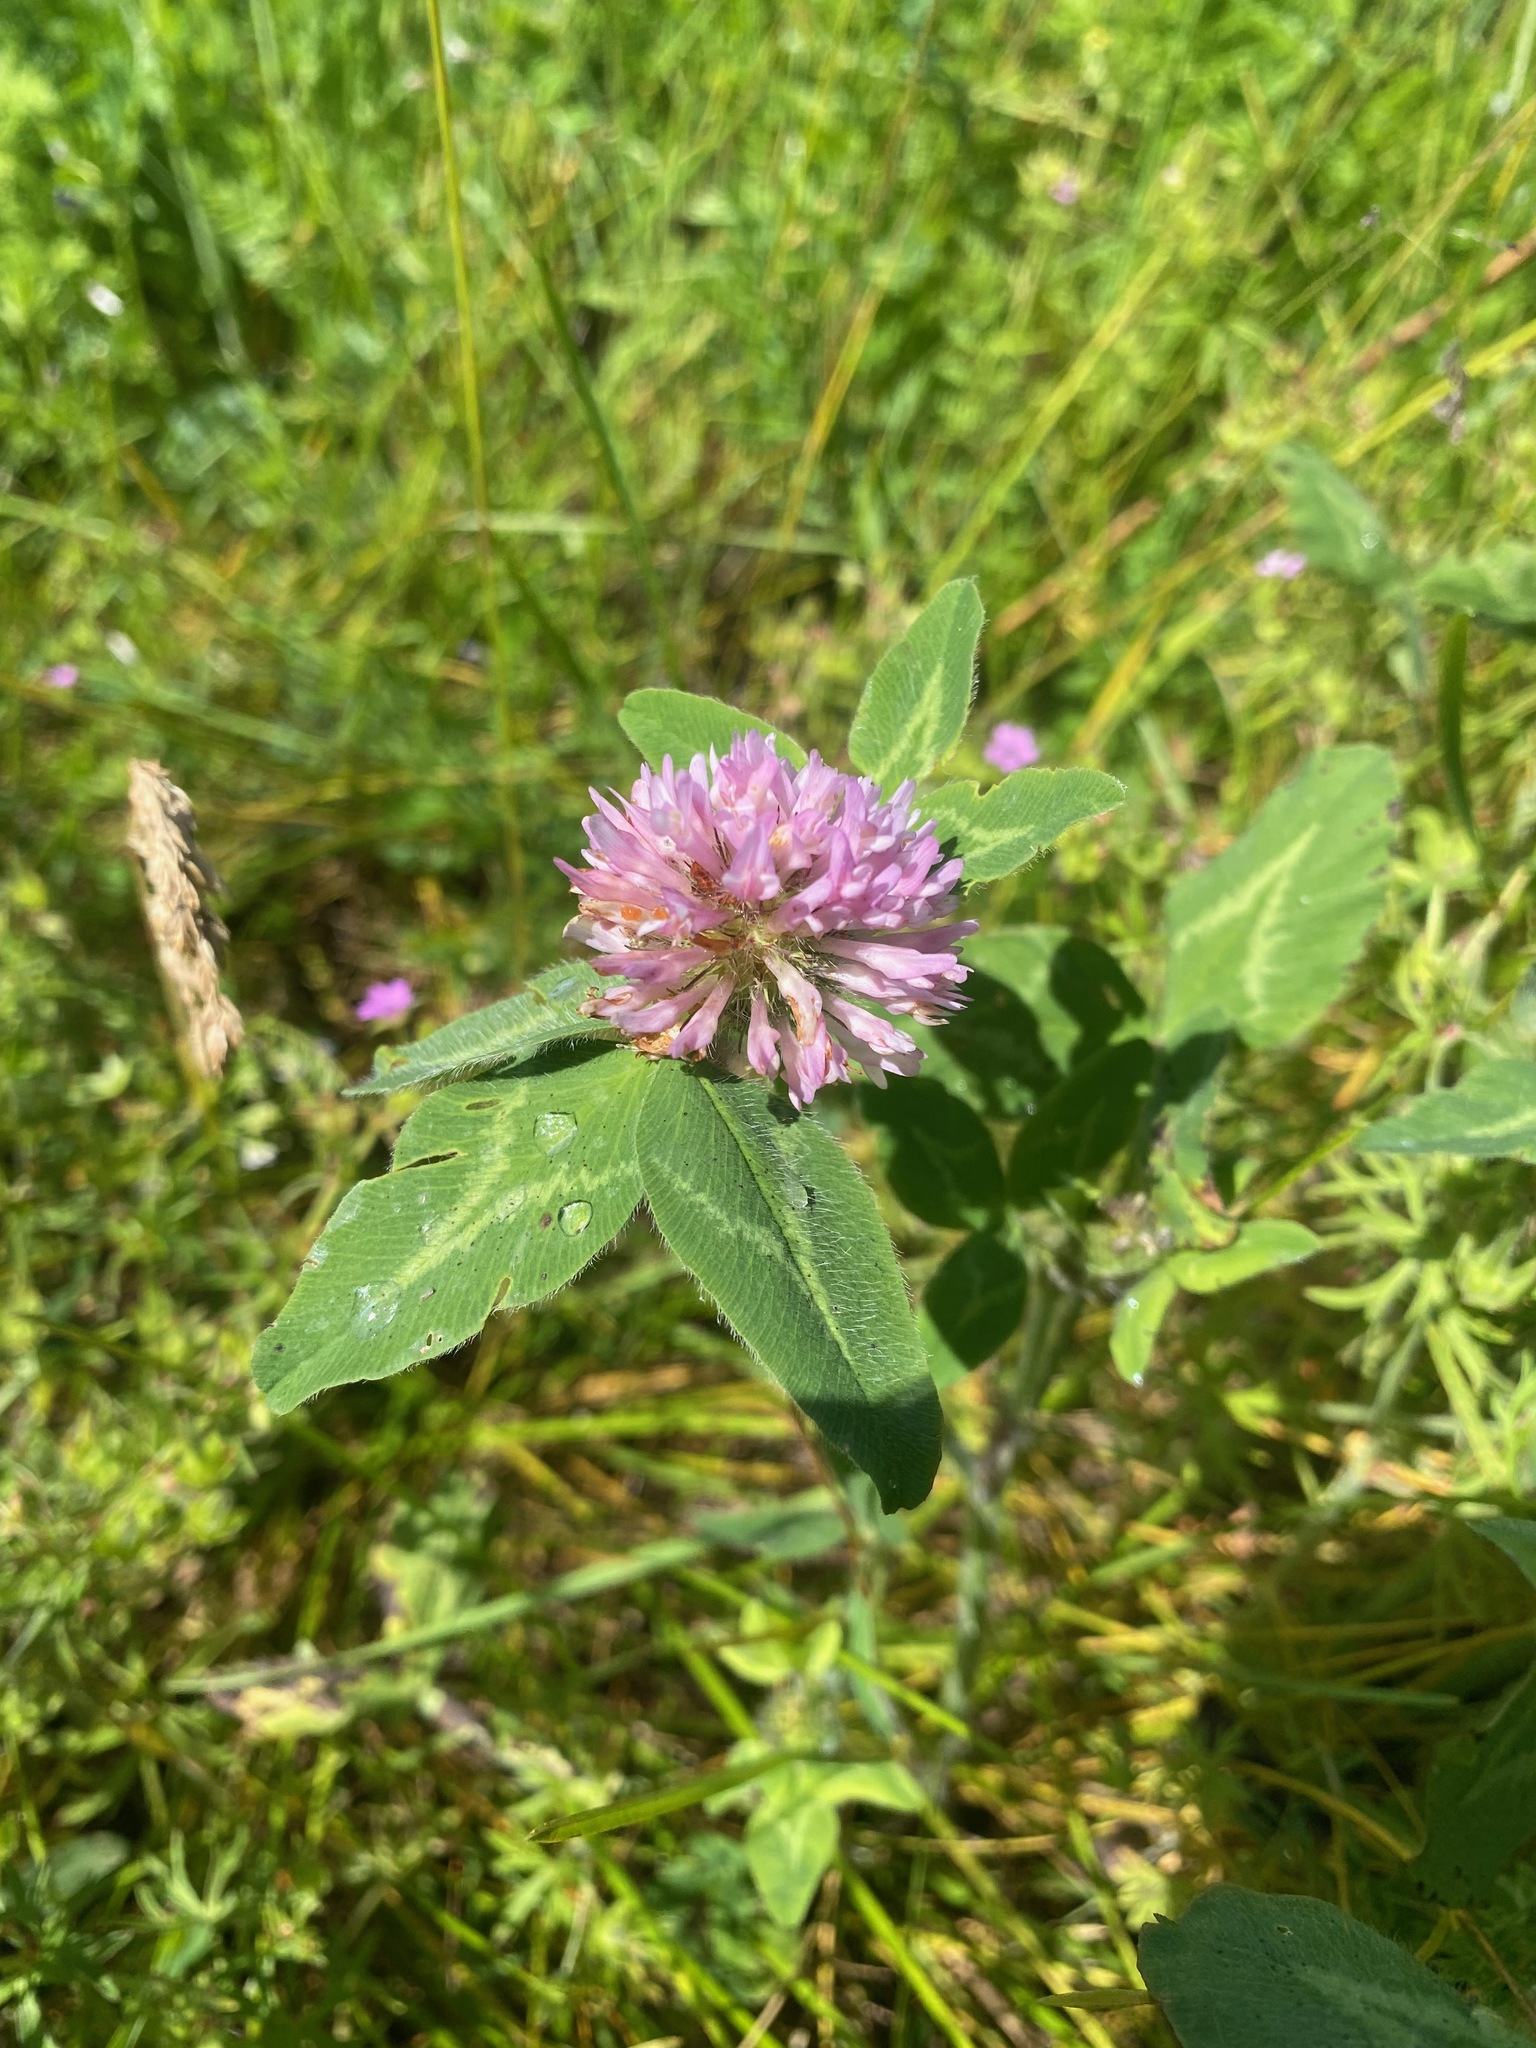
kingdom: Plantae
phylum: Tracheophyta
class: Magnoliopsida
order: Fabales
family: Fabaceae
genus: Trifolium
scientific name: Trifolium pratense
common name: Red clover
